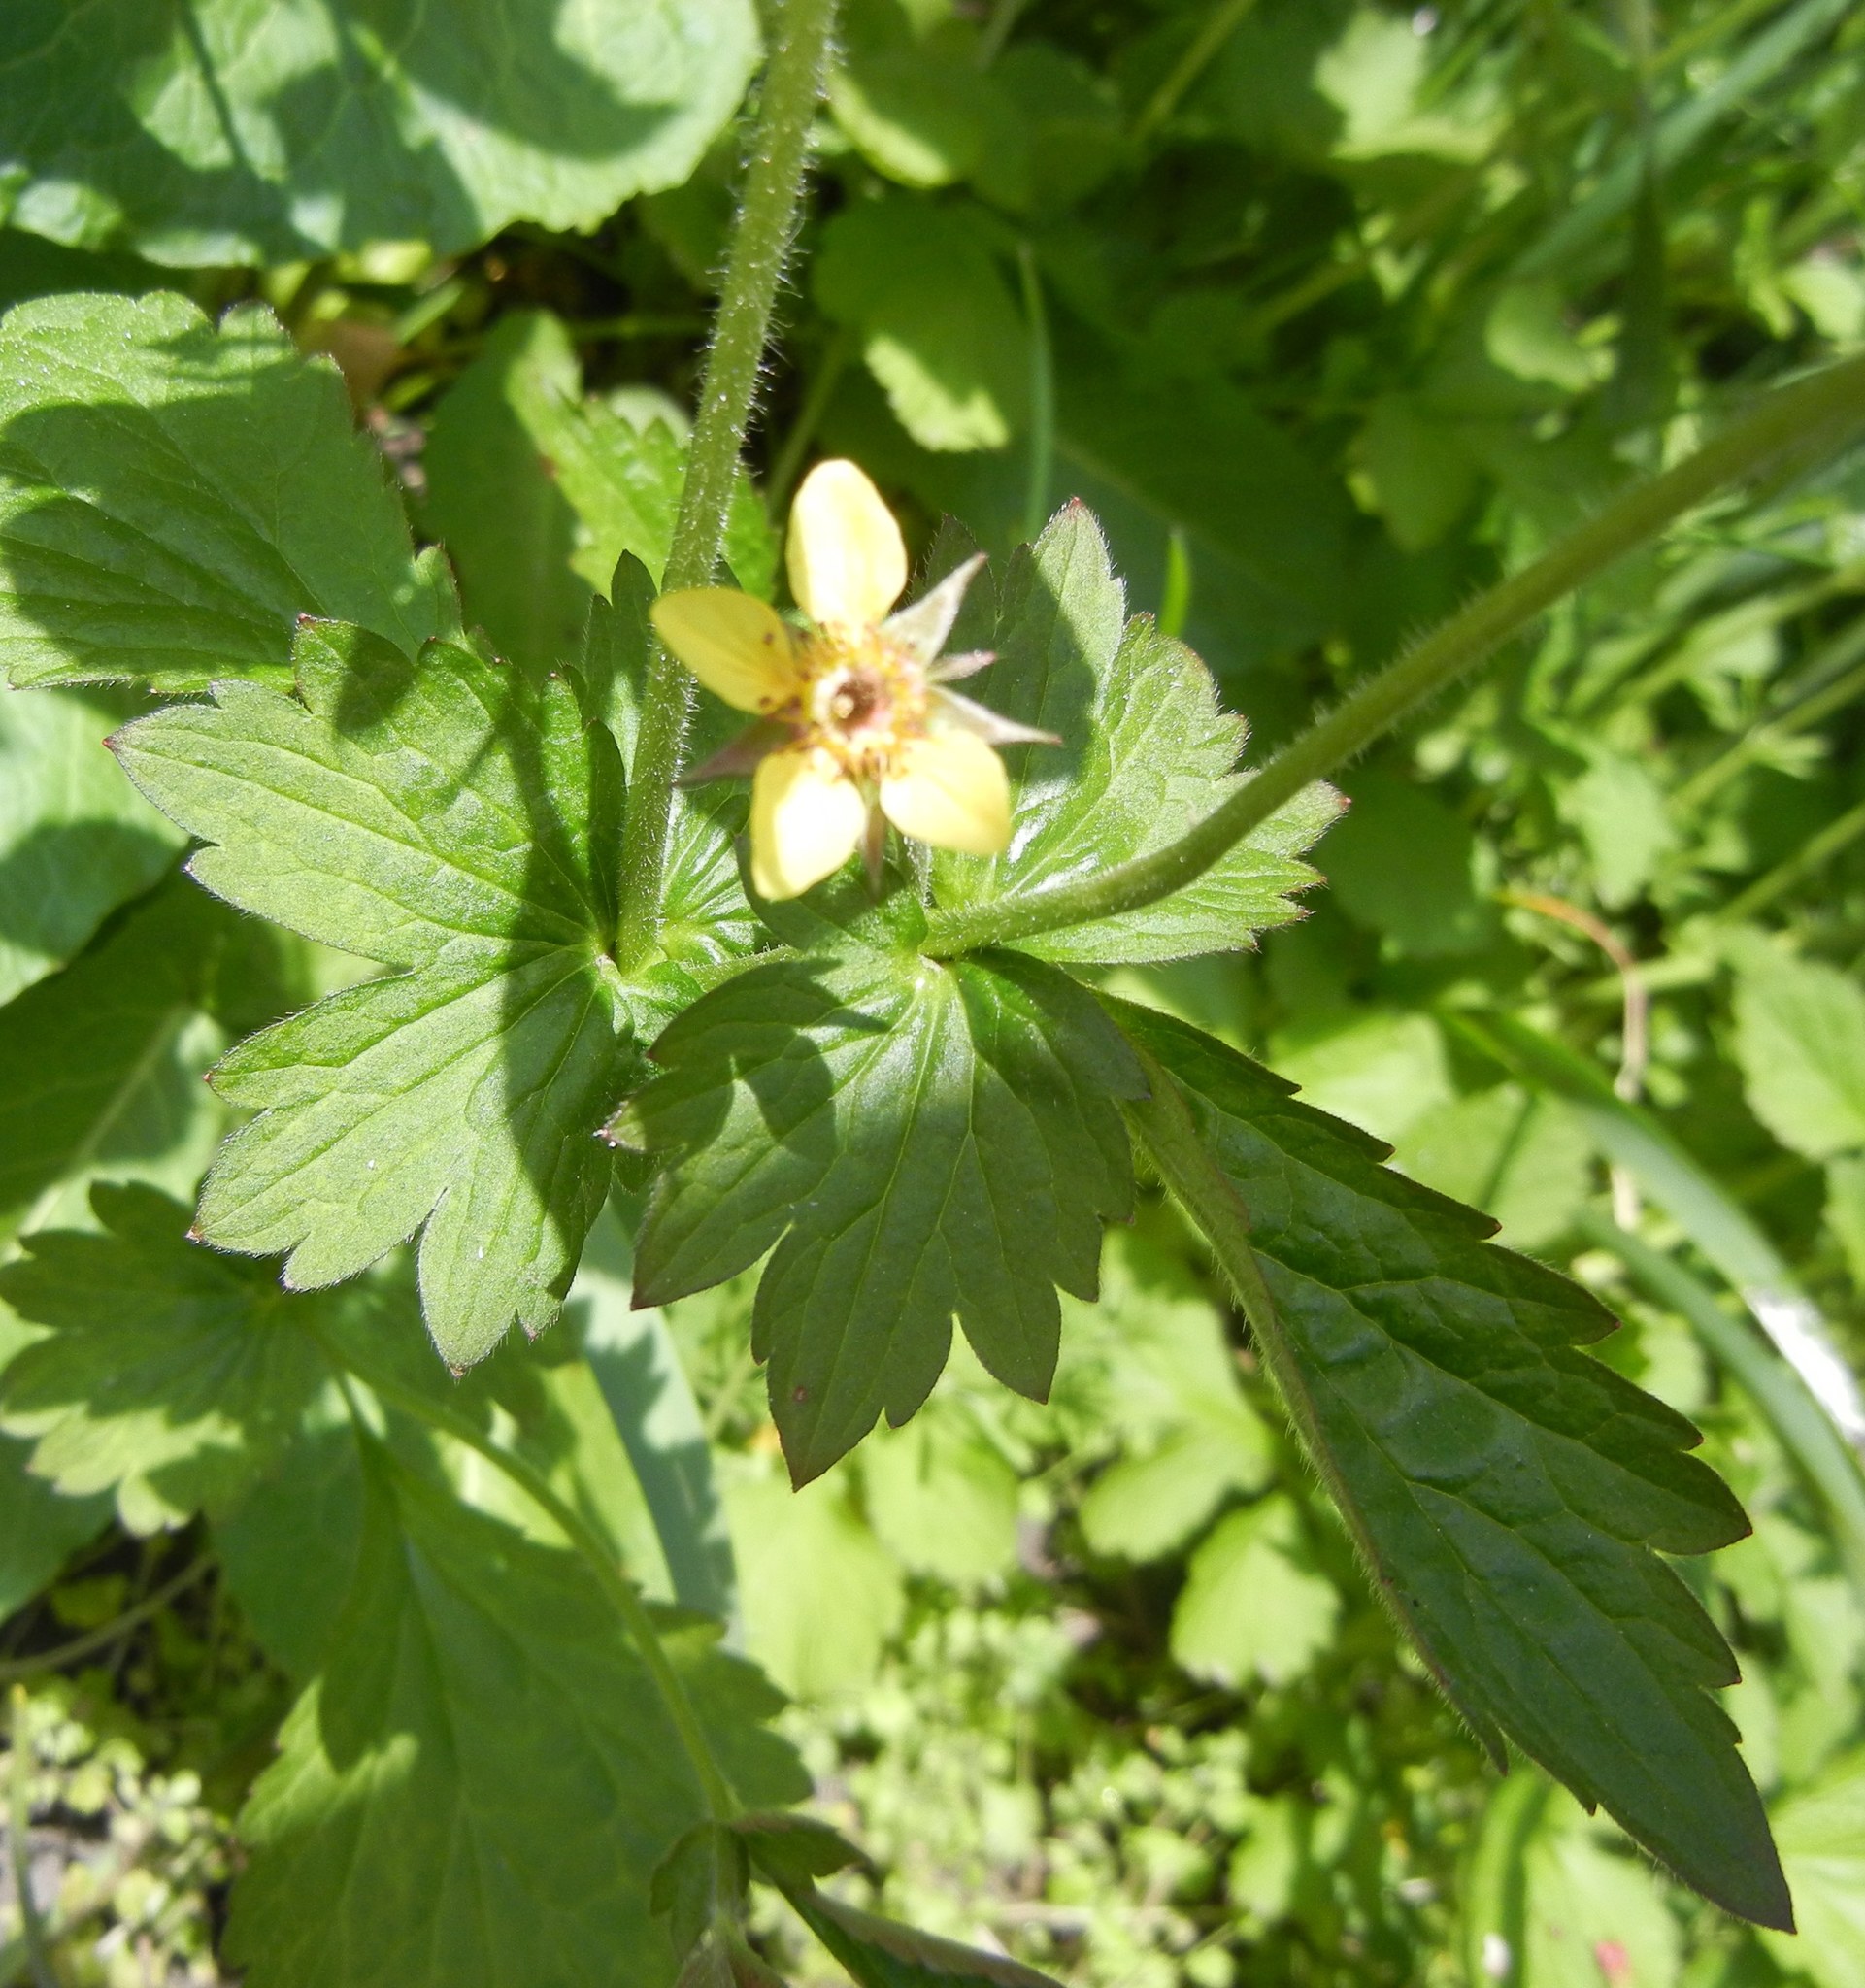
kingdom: Plantae
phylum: Tracheophyta
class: Magnoliopsida
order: Rosales
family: Rosaceae
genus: Geum
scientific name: Geum urbanum
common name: Wood avens
